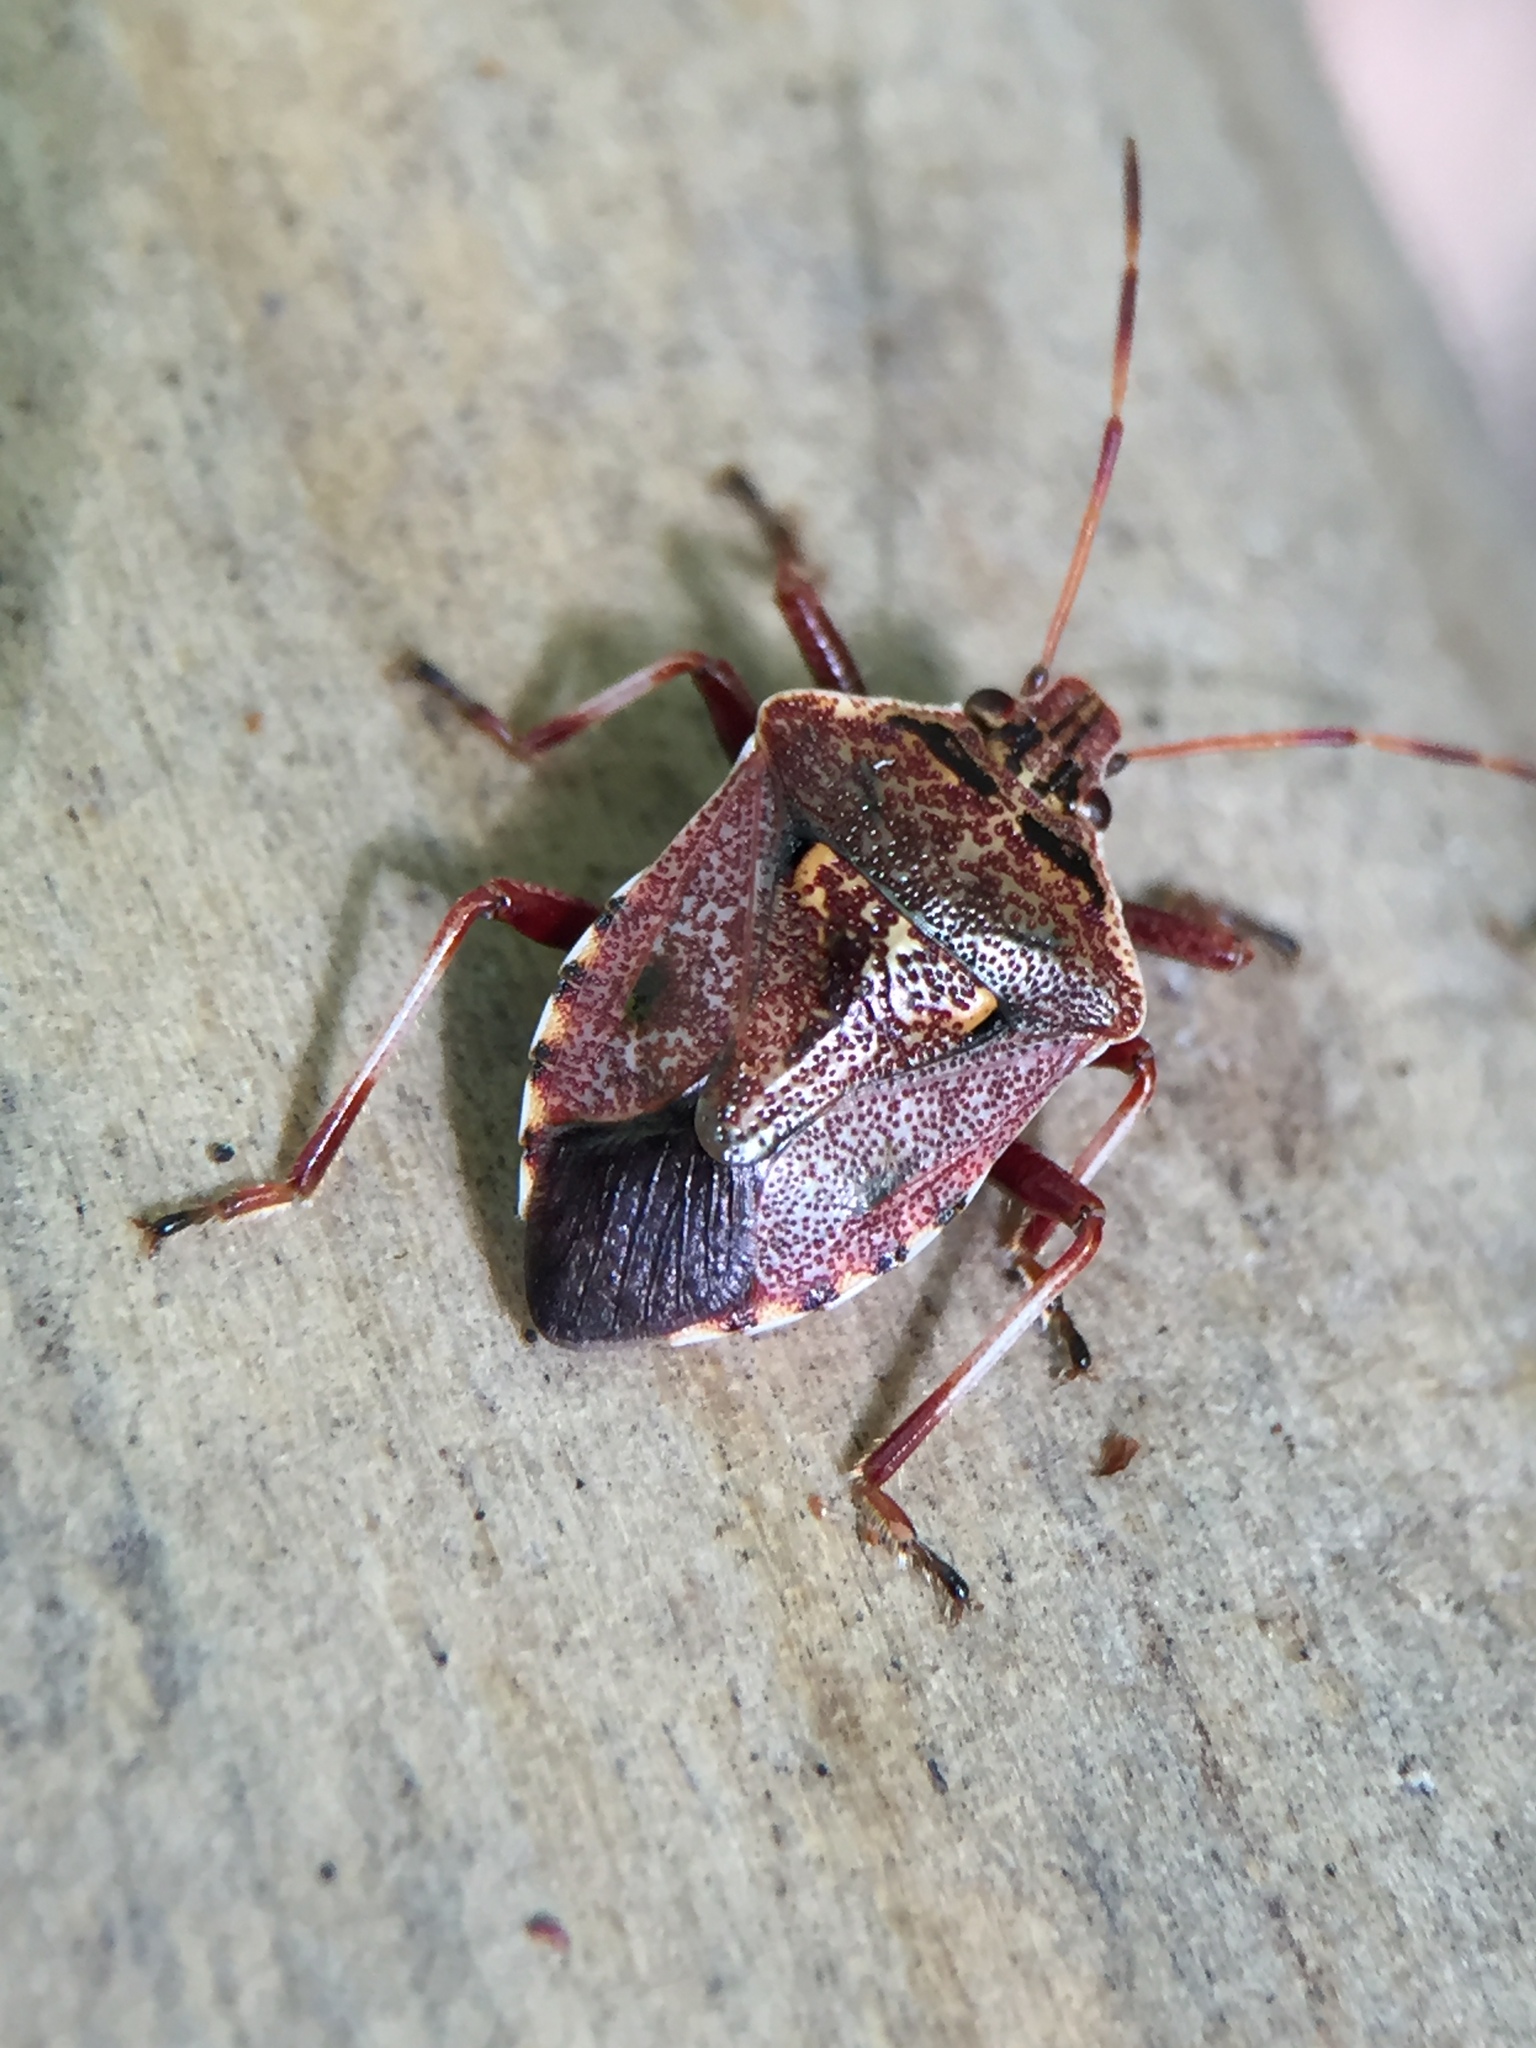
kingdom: Animalia
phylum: Arthropoda
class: Insecta
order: Hemiptera
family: Pentatomidae
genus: Cermatulus
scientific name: Cermatulus nasalis
